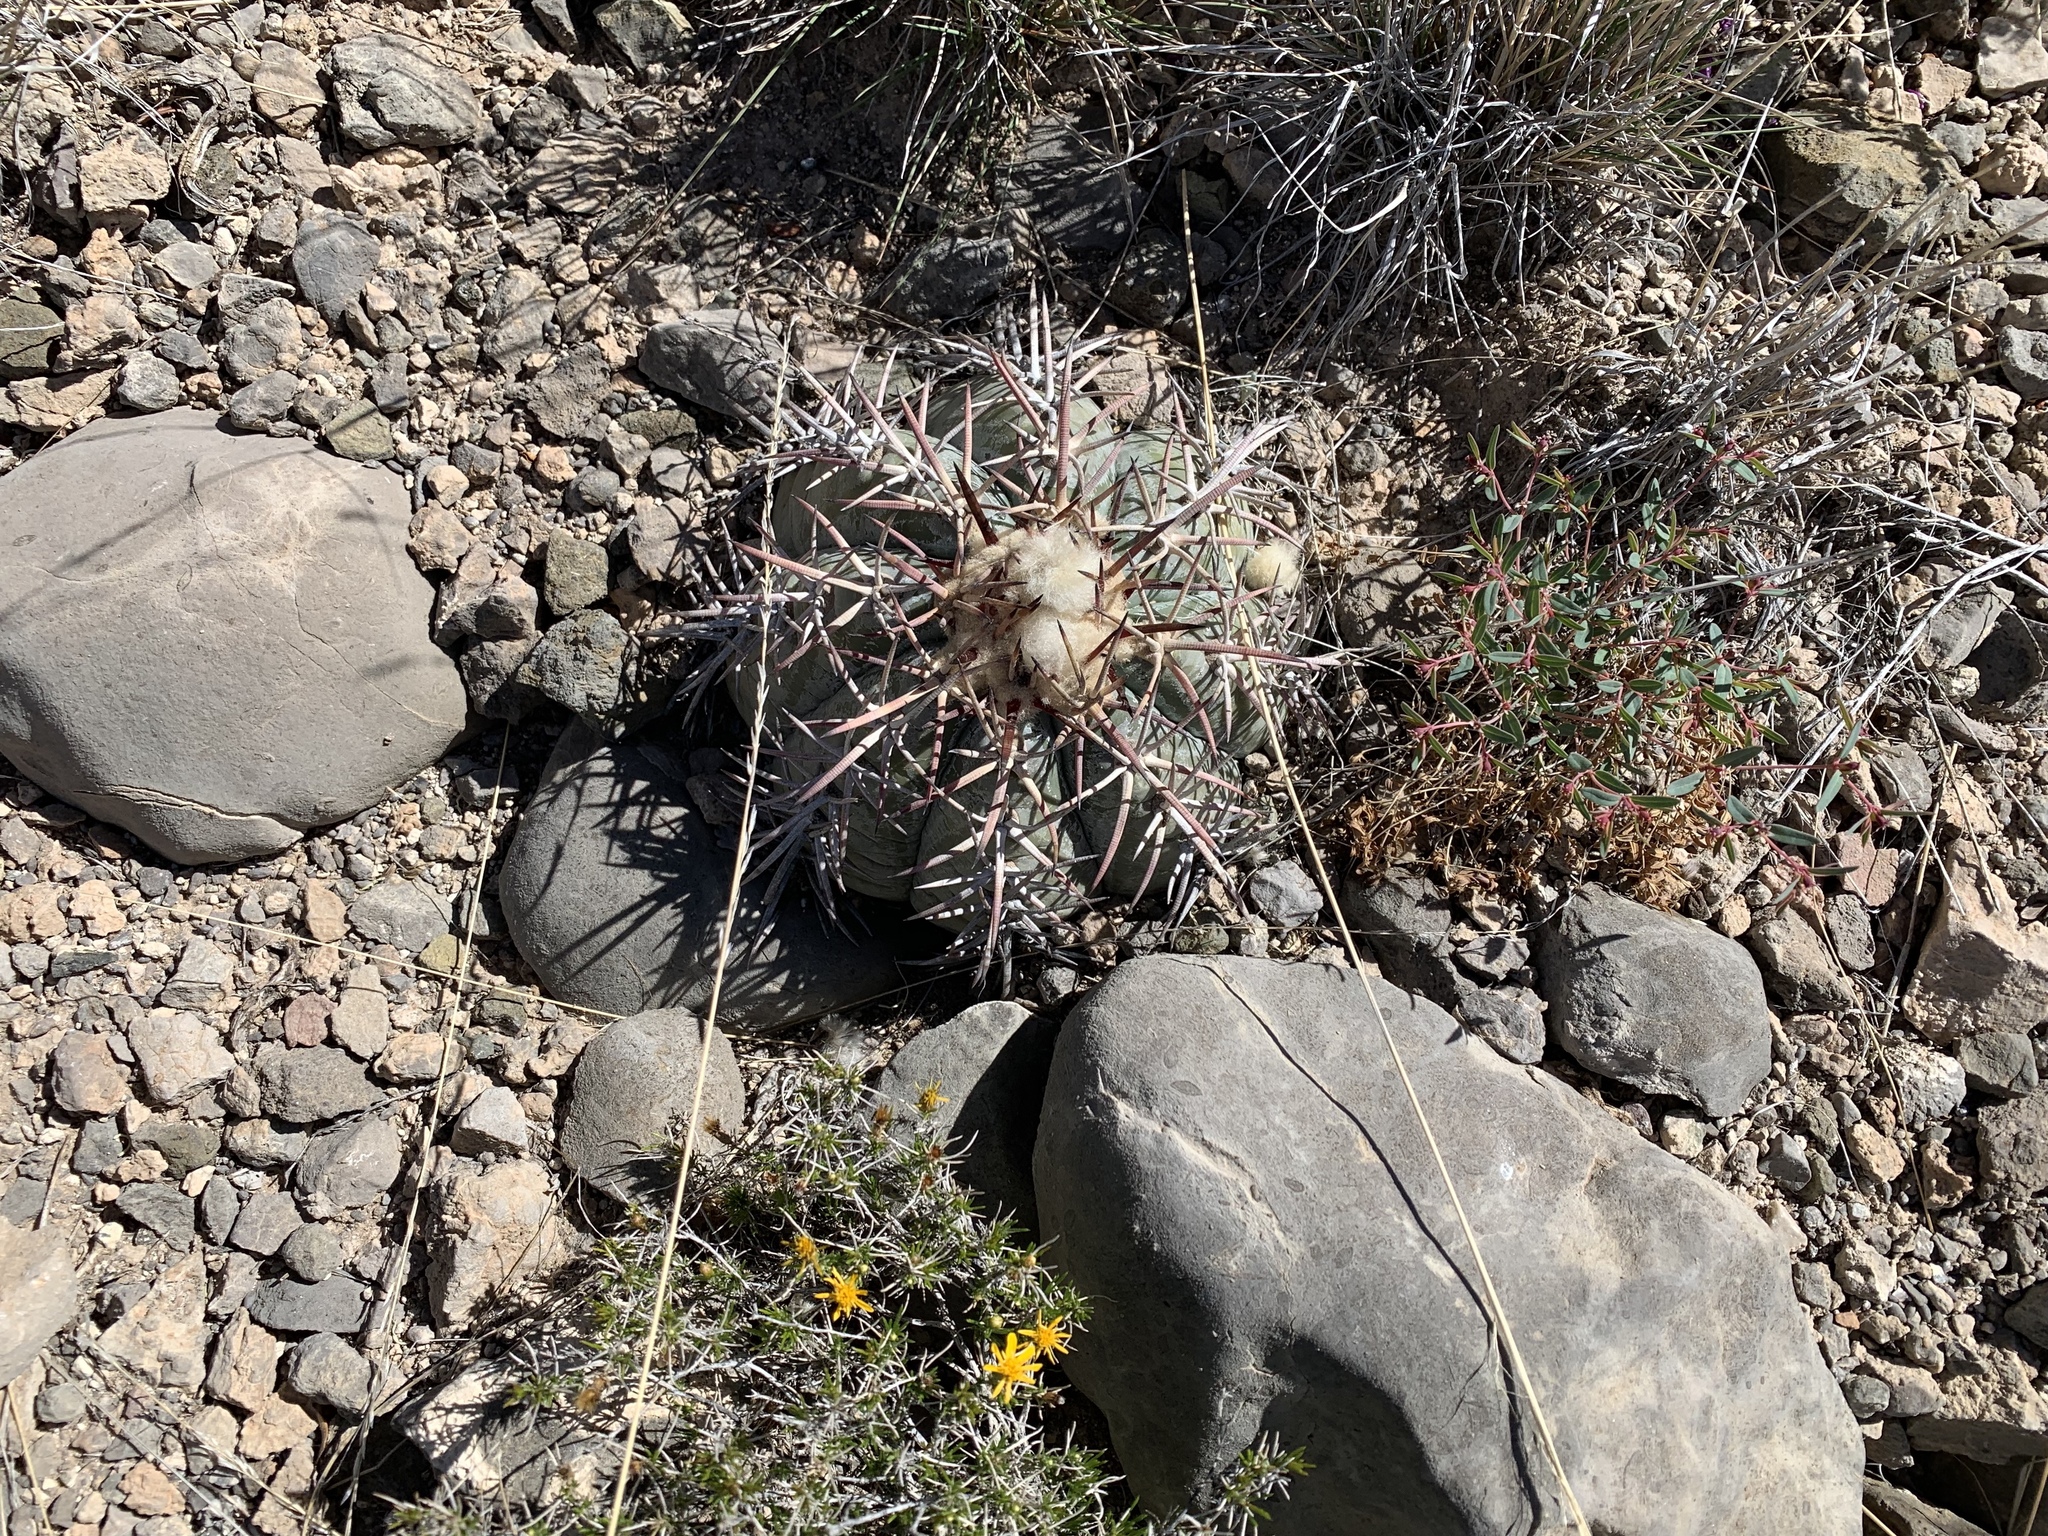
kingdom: Plantae
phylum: Tracheophyta
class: Magnoliopsida
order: Caryophyllales
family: Cactaceae
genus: Echinocactus
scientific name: Echinocactus horizonthalonius
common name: Devilshead
